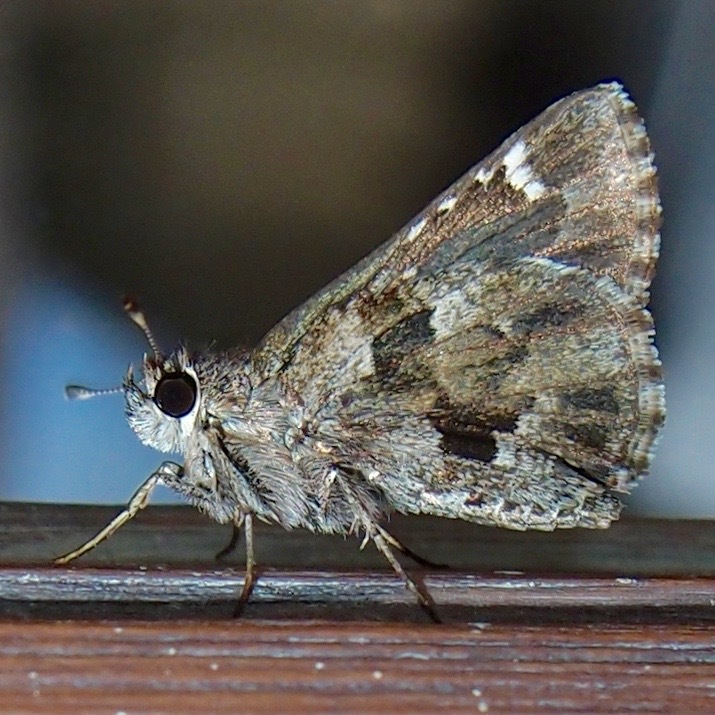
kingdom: Animalia
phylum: Arthropoda
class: Insecta
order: Lepidoptera
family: Hesperiidae
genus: Mastor
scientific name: Mastor nysa
